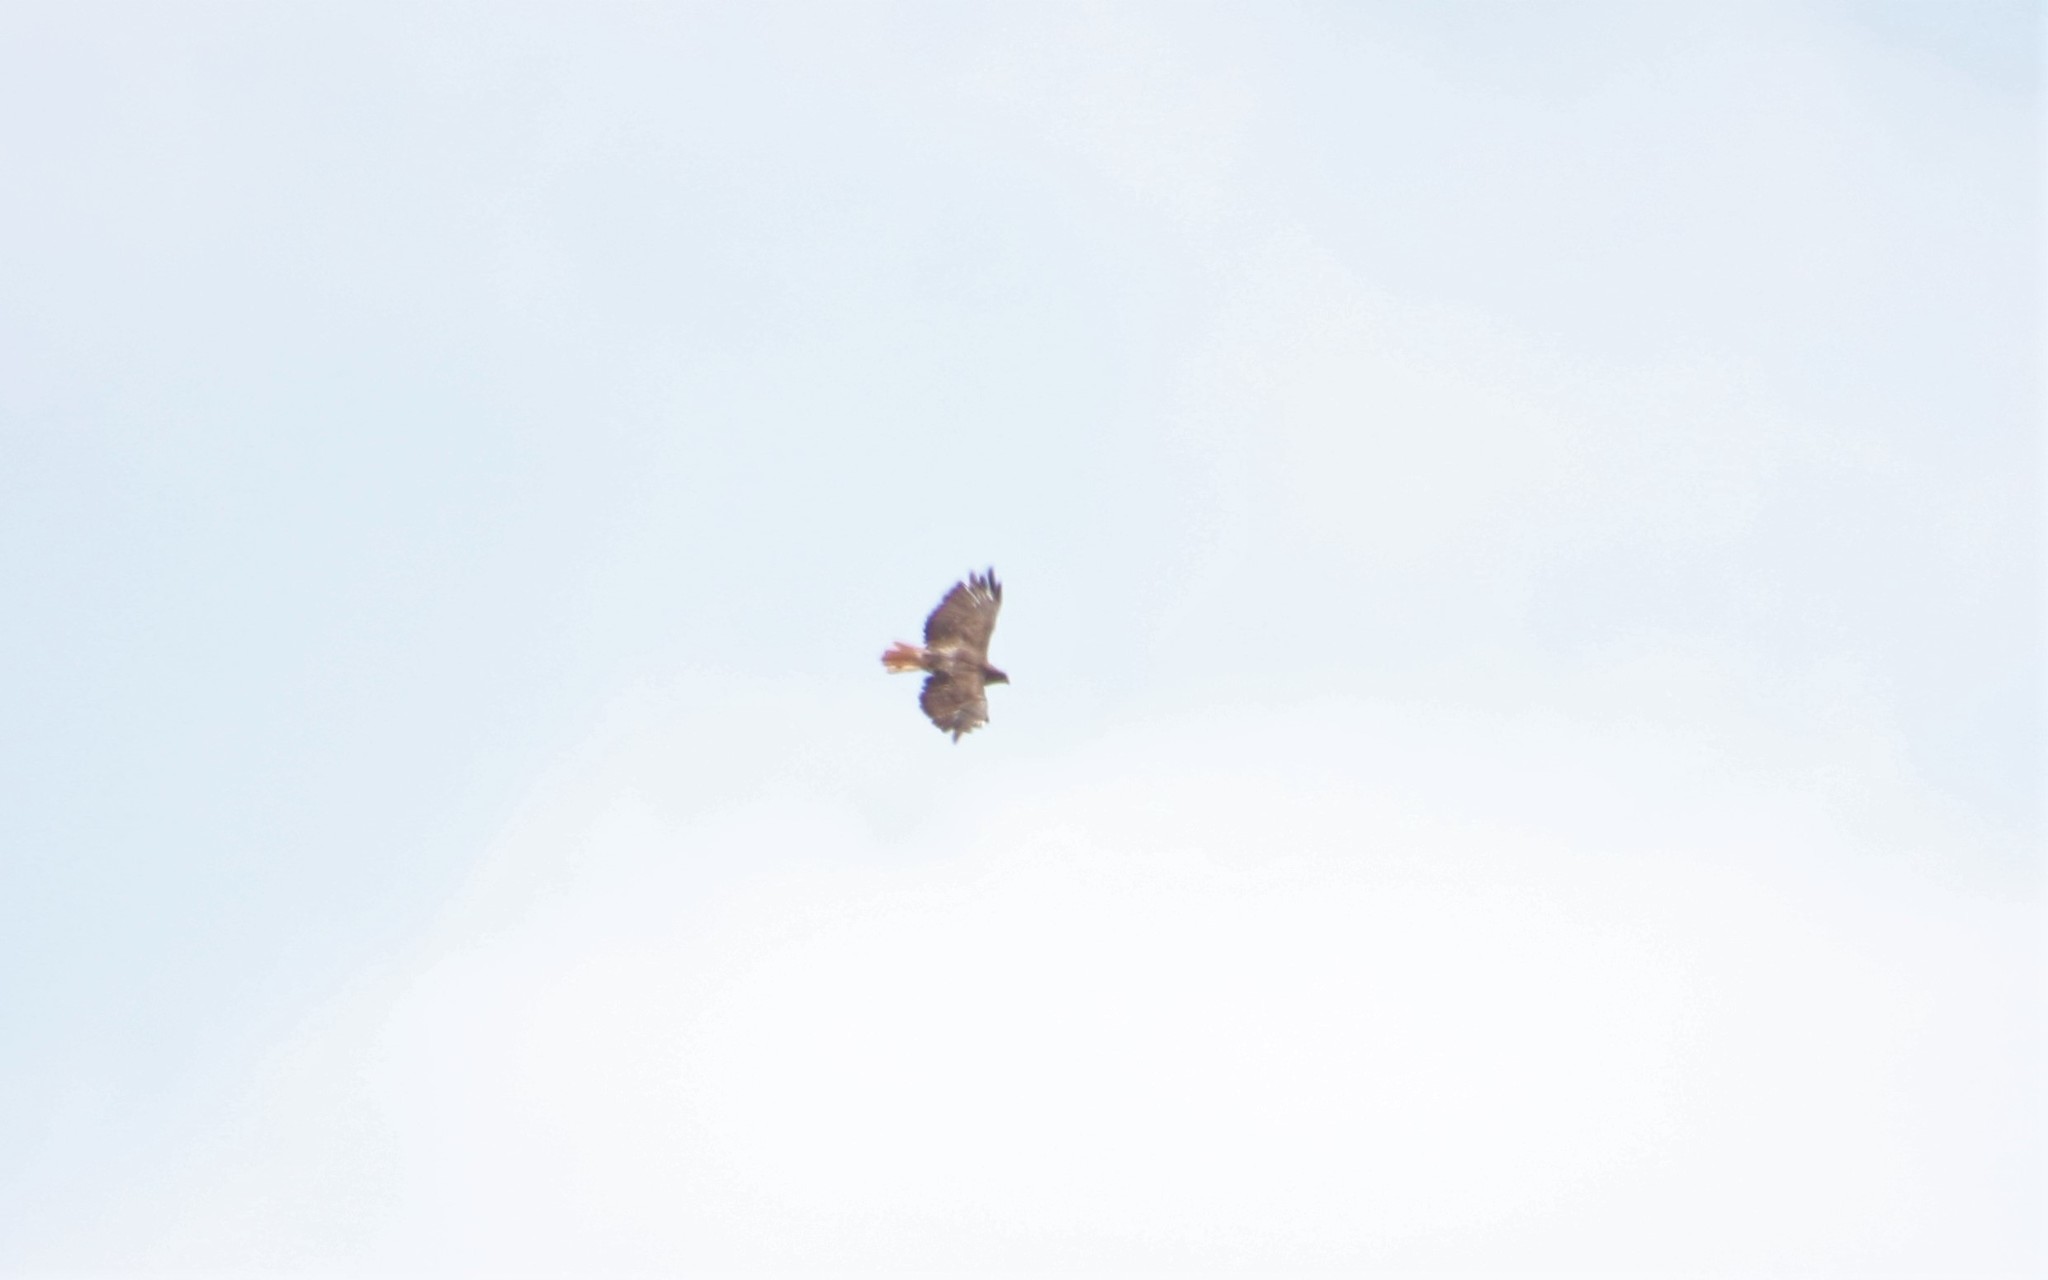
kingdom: Animalia
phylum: Chordata
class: Aves
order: Accipitriformes
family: Accipitridae
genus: Buteo
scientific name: Buteo jamaicensis
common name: Red-tailed hawk
